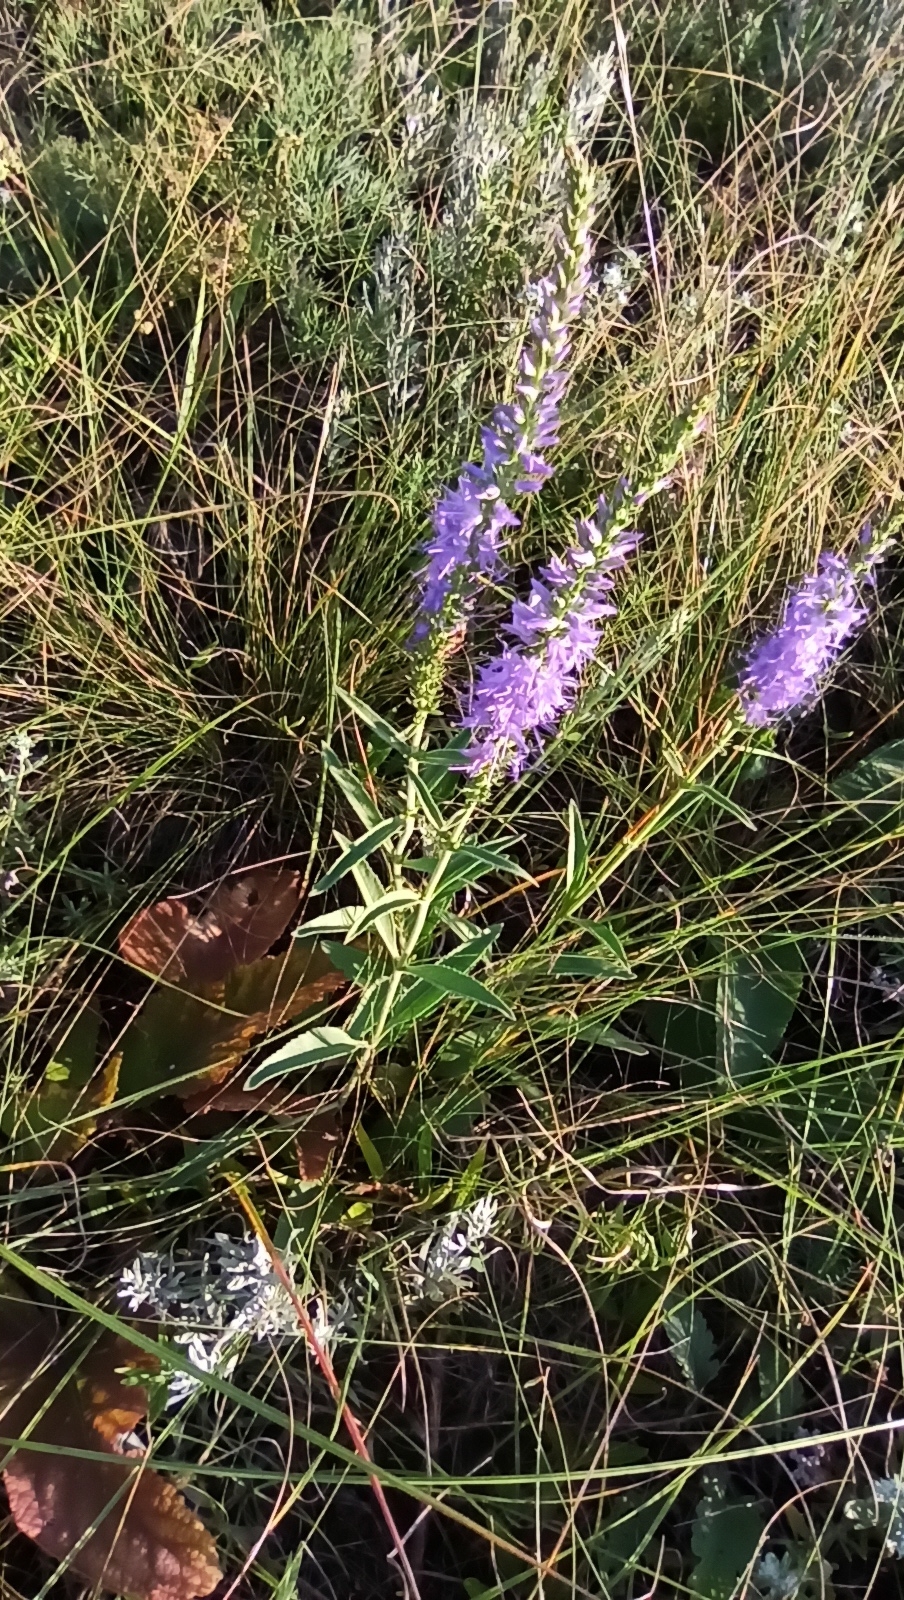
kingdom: Plantae
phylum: Tracheophyta
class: Magnoliopsida
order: Lamiales
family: Plantaginaceae
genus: Veronica
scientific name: Veronica barrelieri
